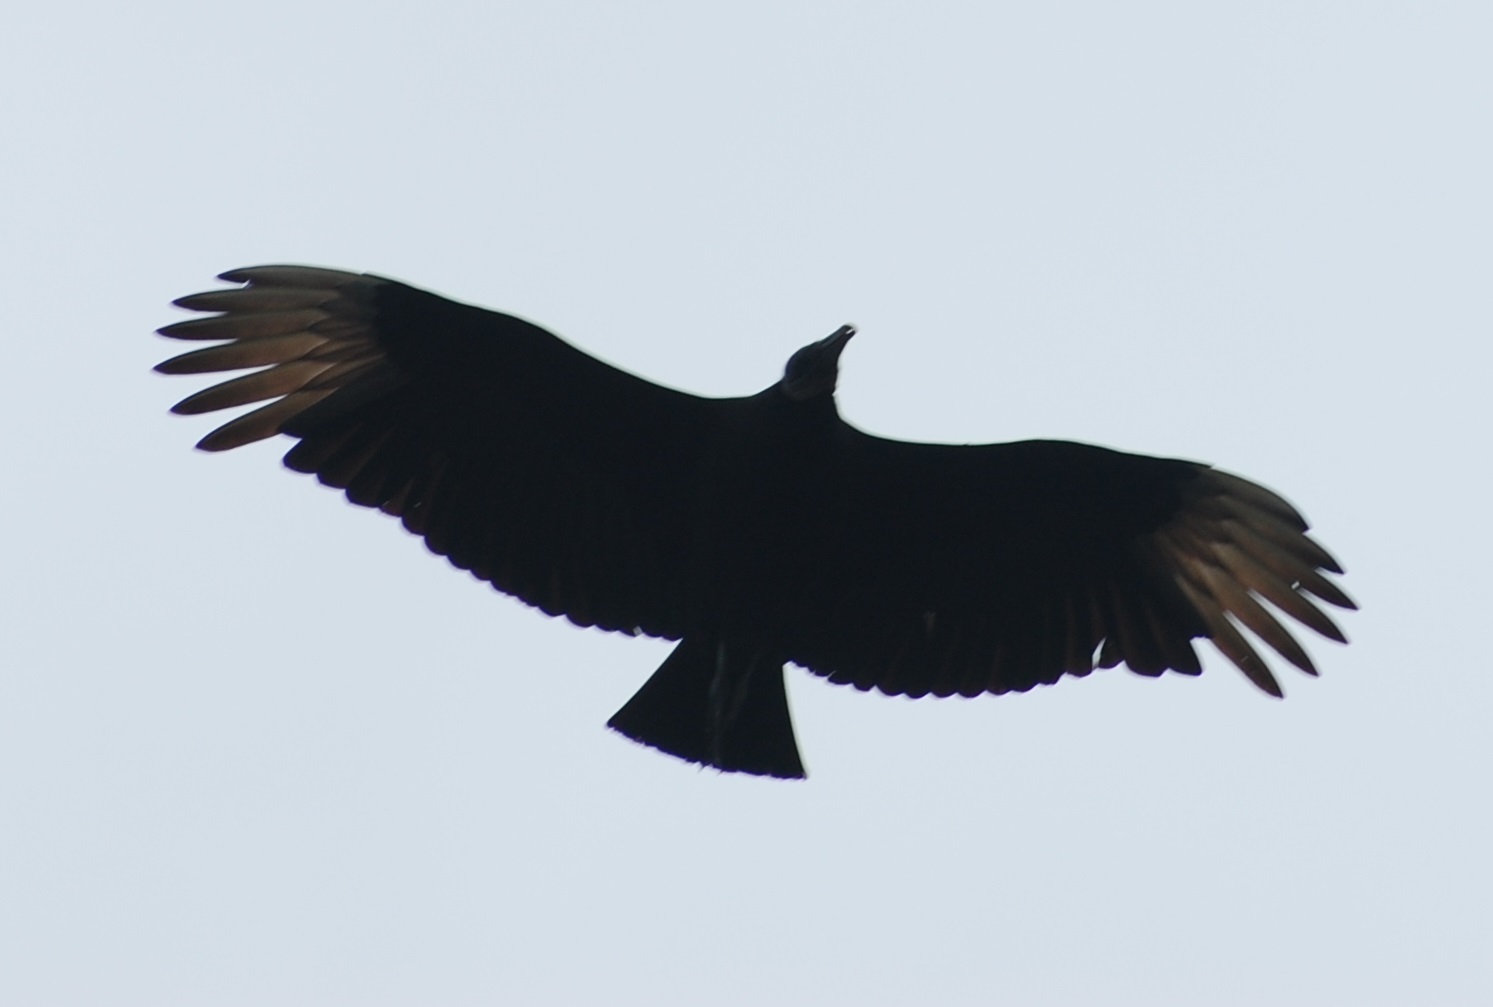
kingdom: Animalia
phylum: Chordata
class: Aves
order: Accipitriformes
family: Cathartidae
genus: Coragyps
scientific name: Coragyps atratus
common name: Black vulture
